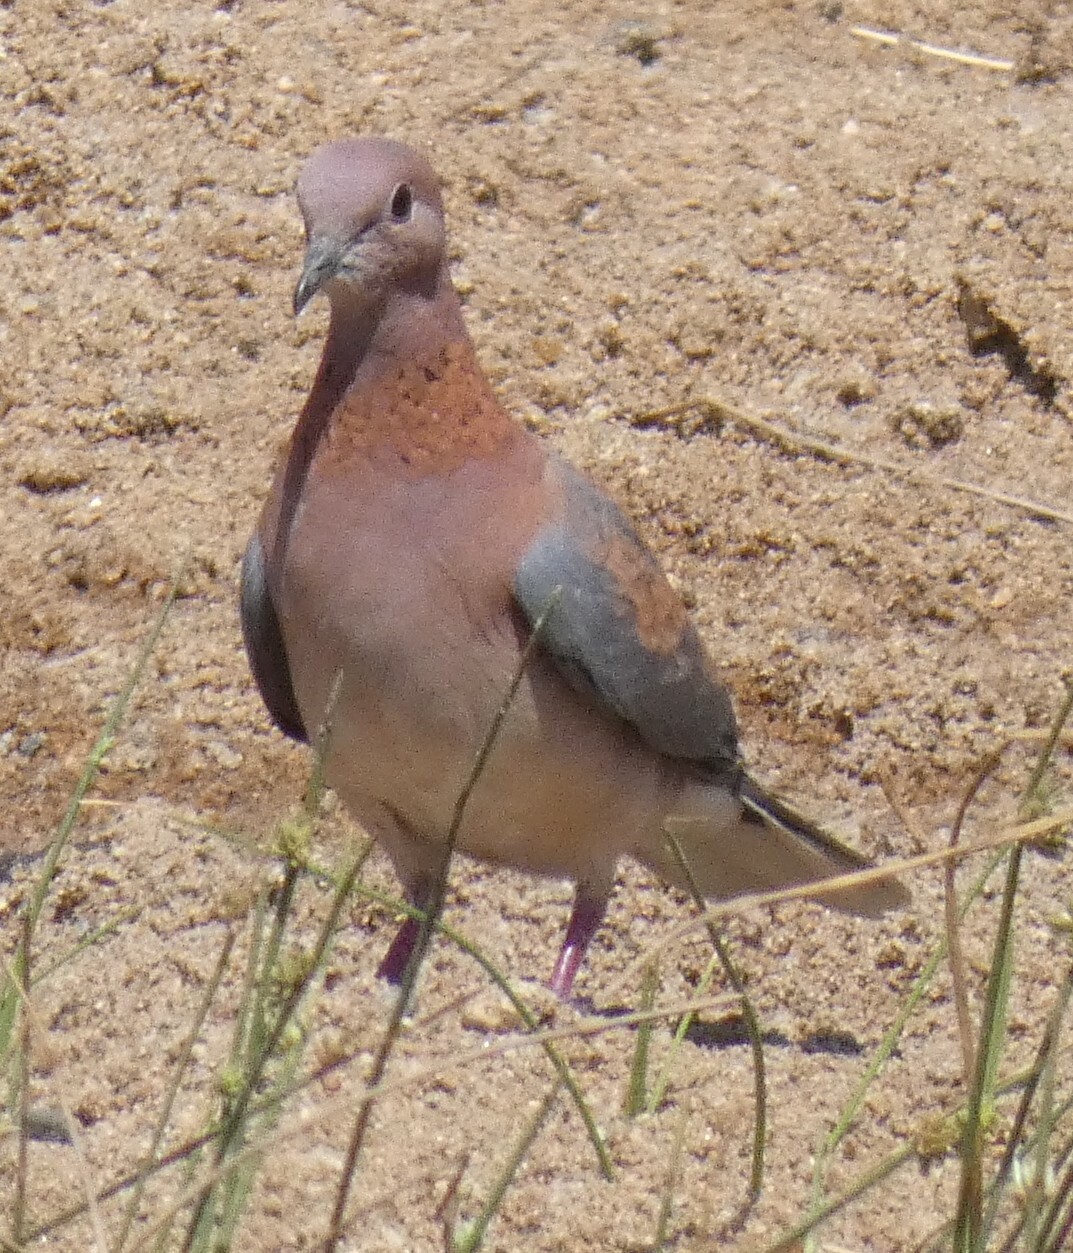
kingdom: Animalia
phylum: Chordata
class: Aves
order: Columbiformes
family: Columbidae
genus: Spilopelia
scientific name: Spilopelia senegalensis
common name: Laughing dove
